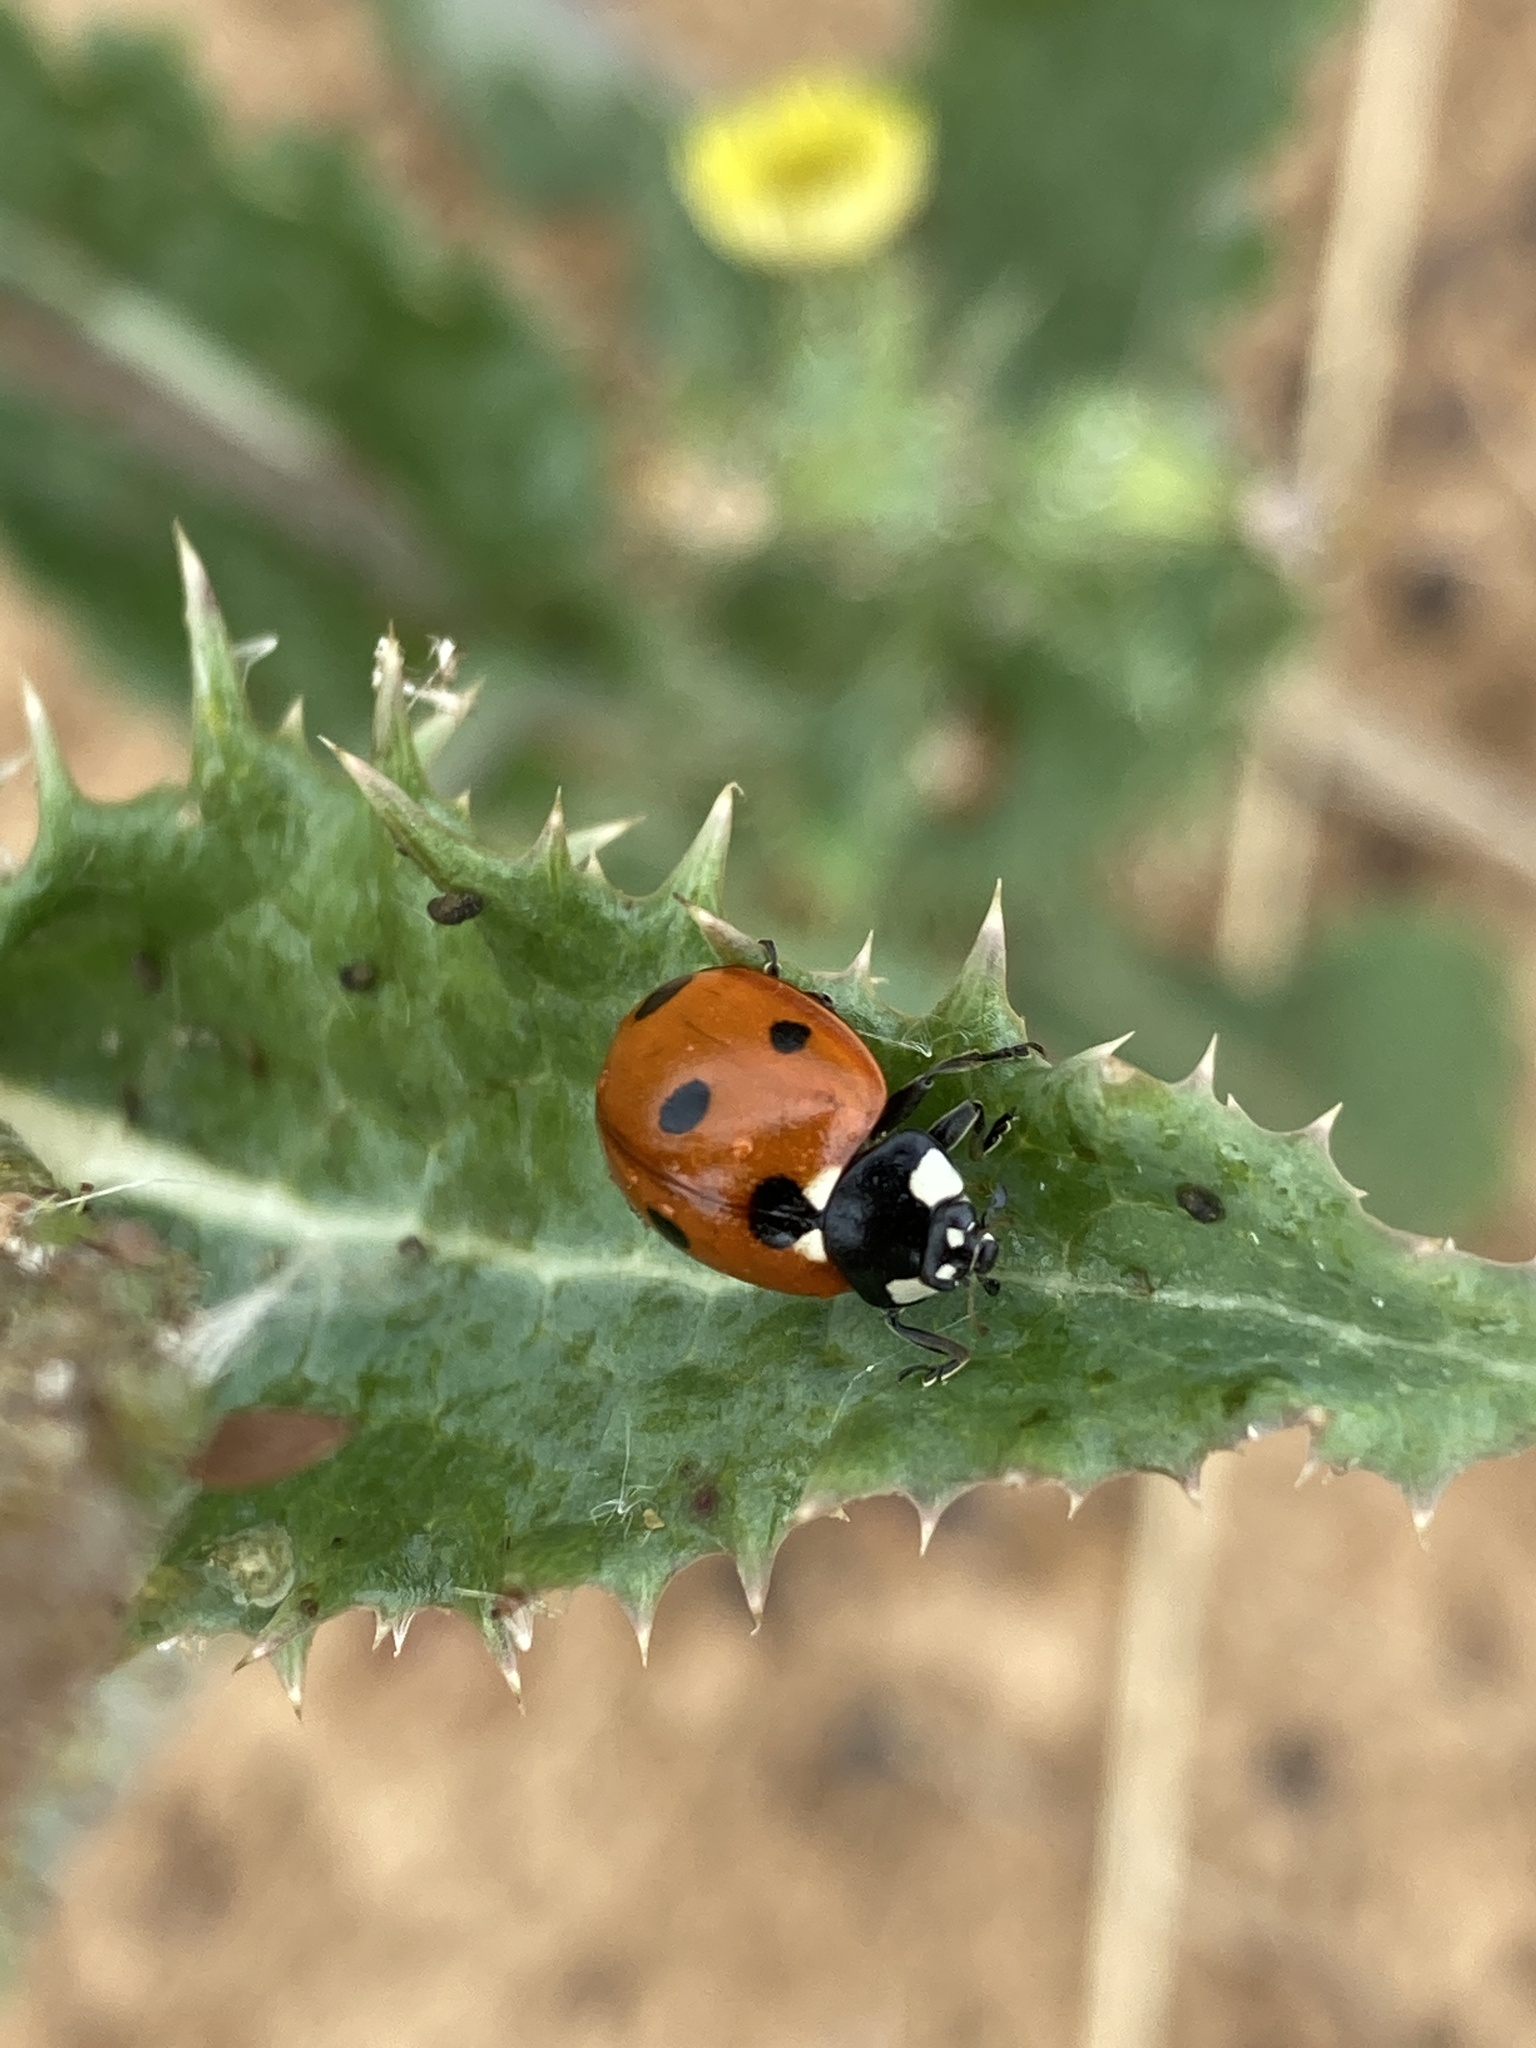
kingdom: Animalia
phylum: Arthropoda
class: Insecta
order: Coleoptera
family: Coccinellidae
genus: Coccinella
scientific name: Coccinella septempunctata
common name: Sevenspotted lady beetle
